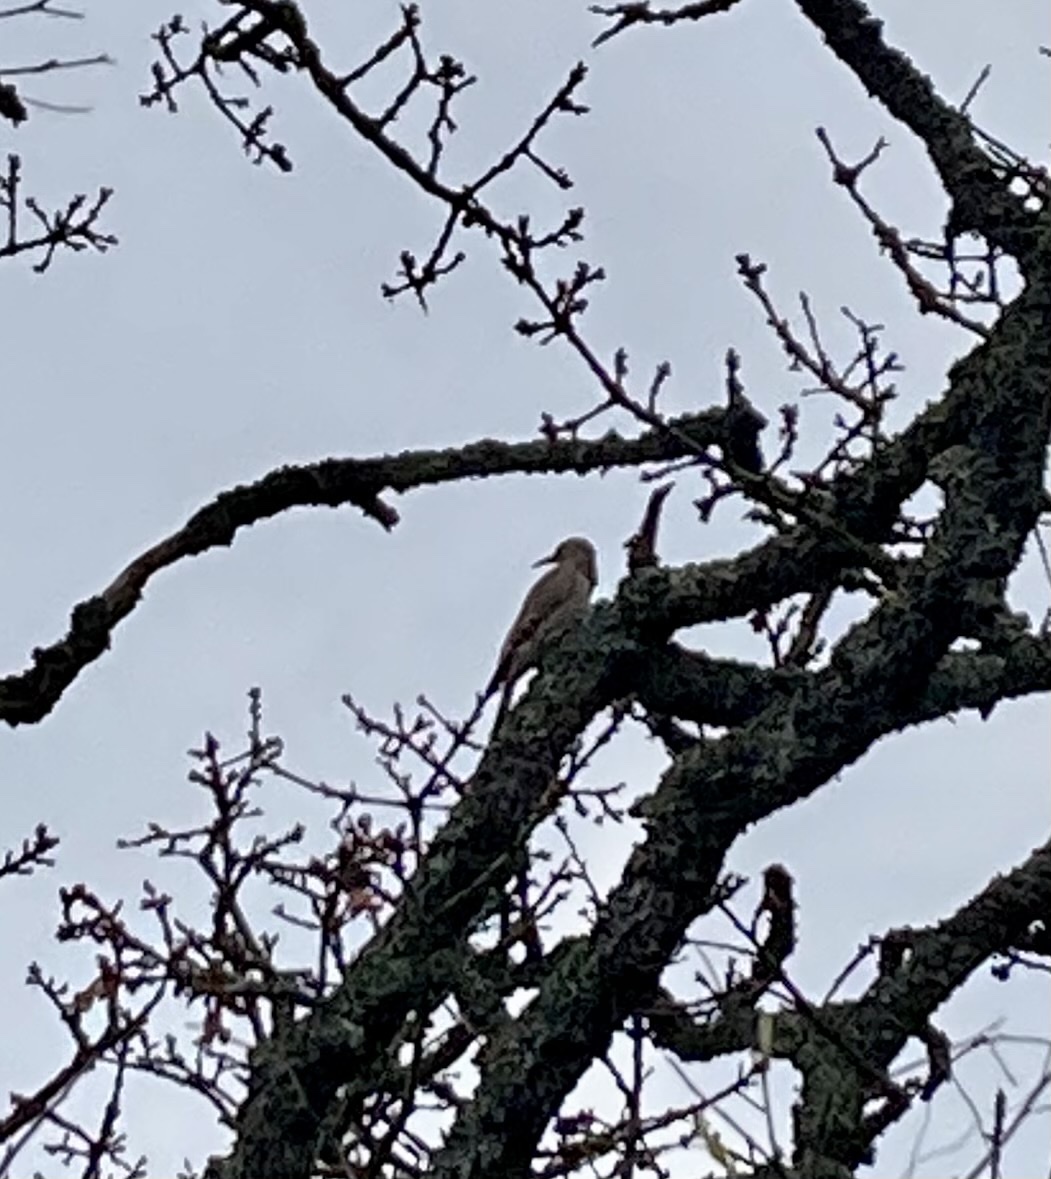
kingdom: Animalia
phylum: Chordata
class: Aves
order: Piciformes
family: Picidae
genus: Colaptes
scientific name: Colaptes auratus
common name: Northern flicker
